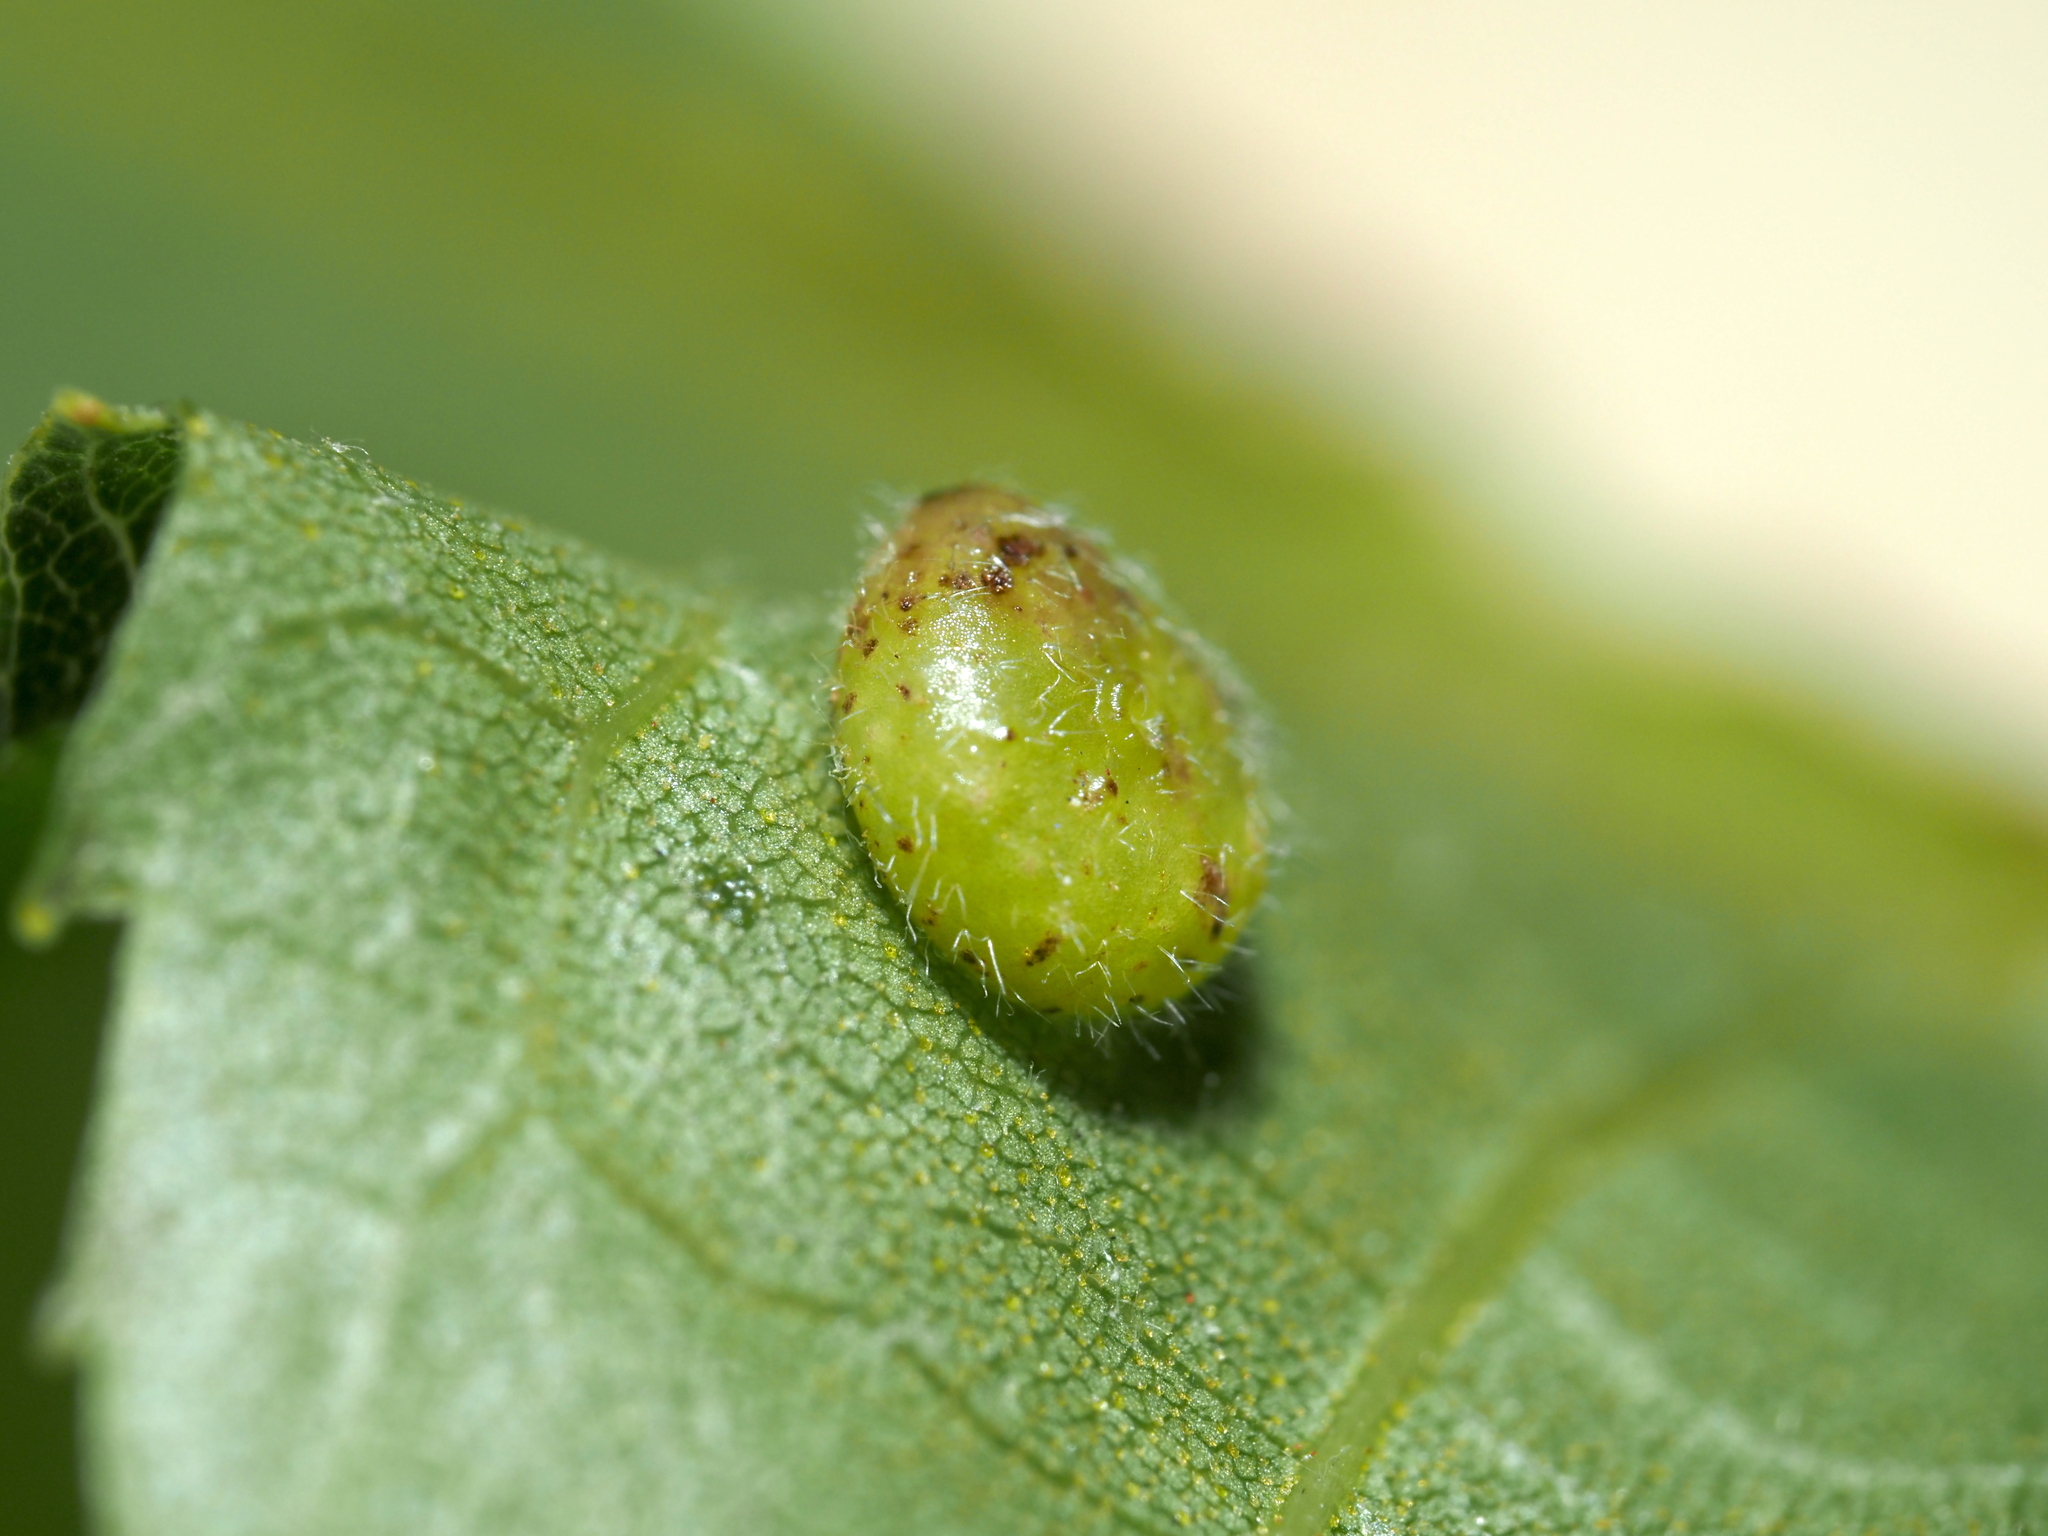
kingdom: Animalia
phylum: Arthropoda
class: Insecta
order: Diptera
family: Cecidomyiidae
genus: Caryomyia
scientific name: Caryomyia thompsoni
